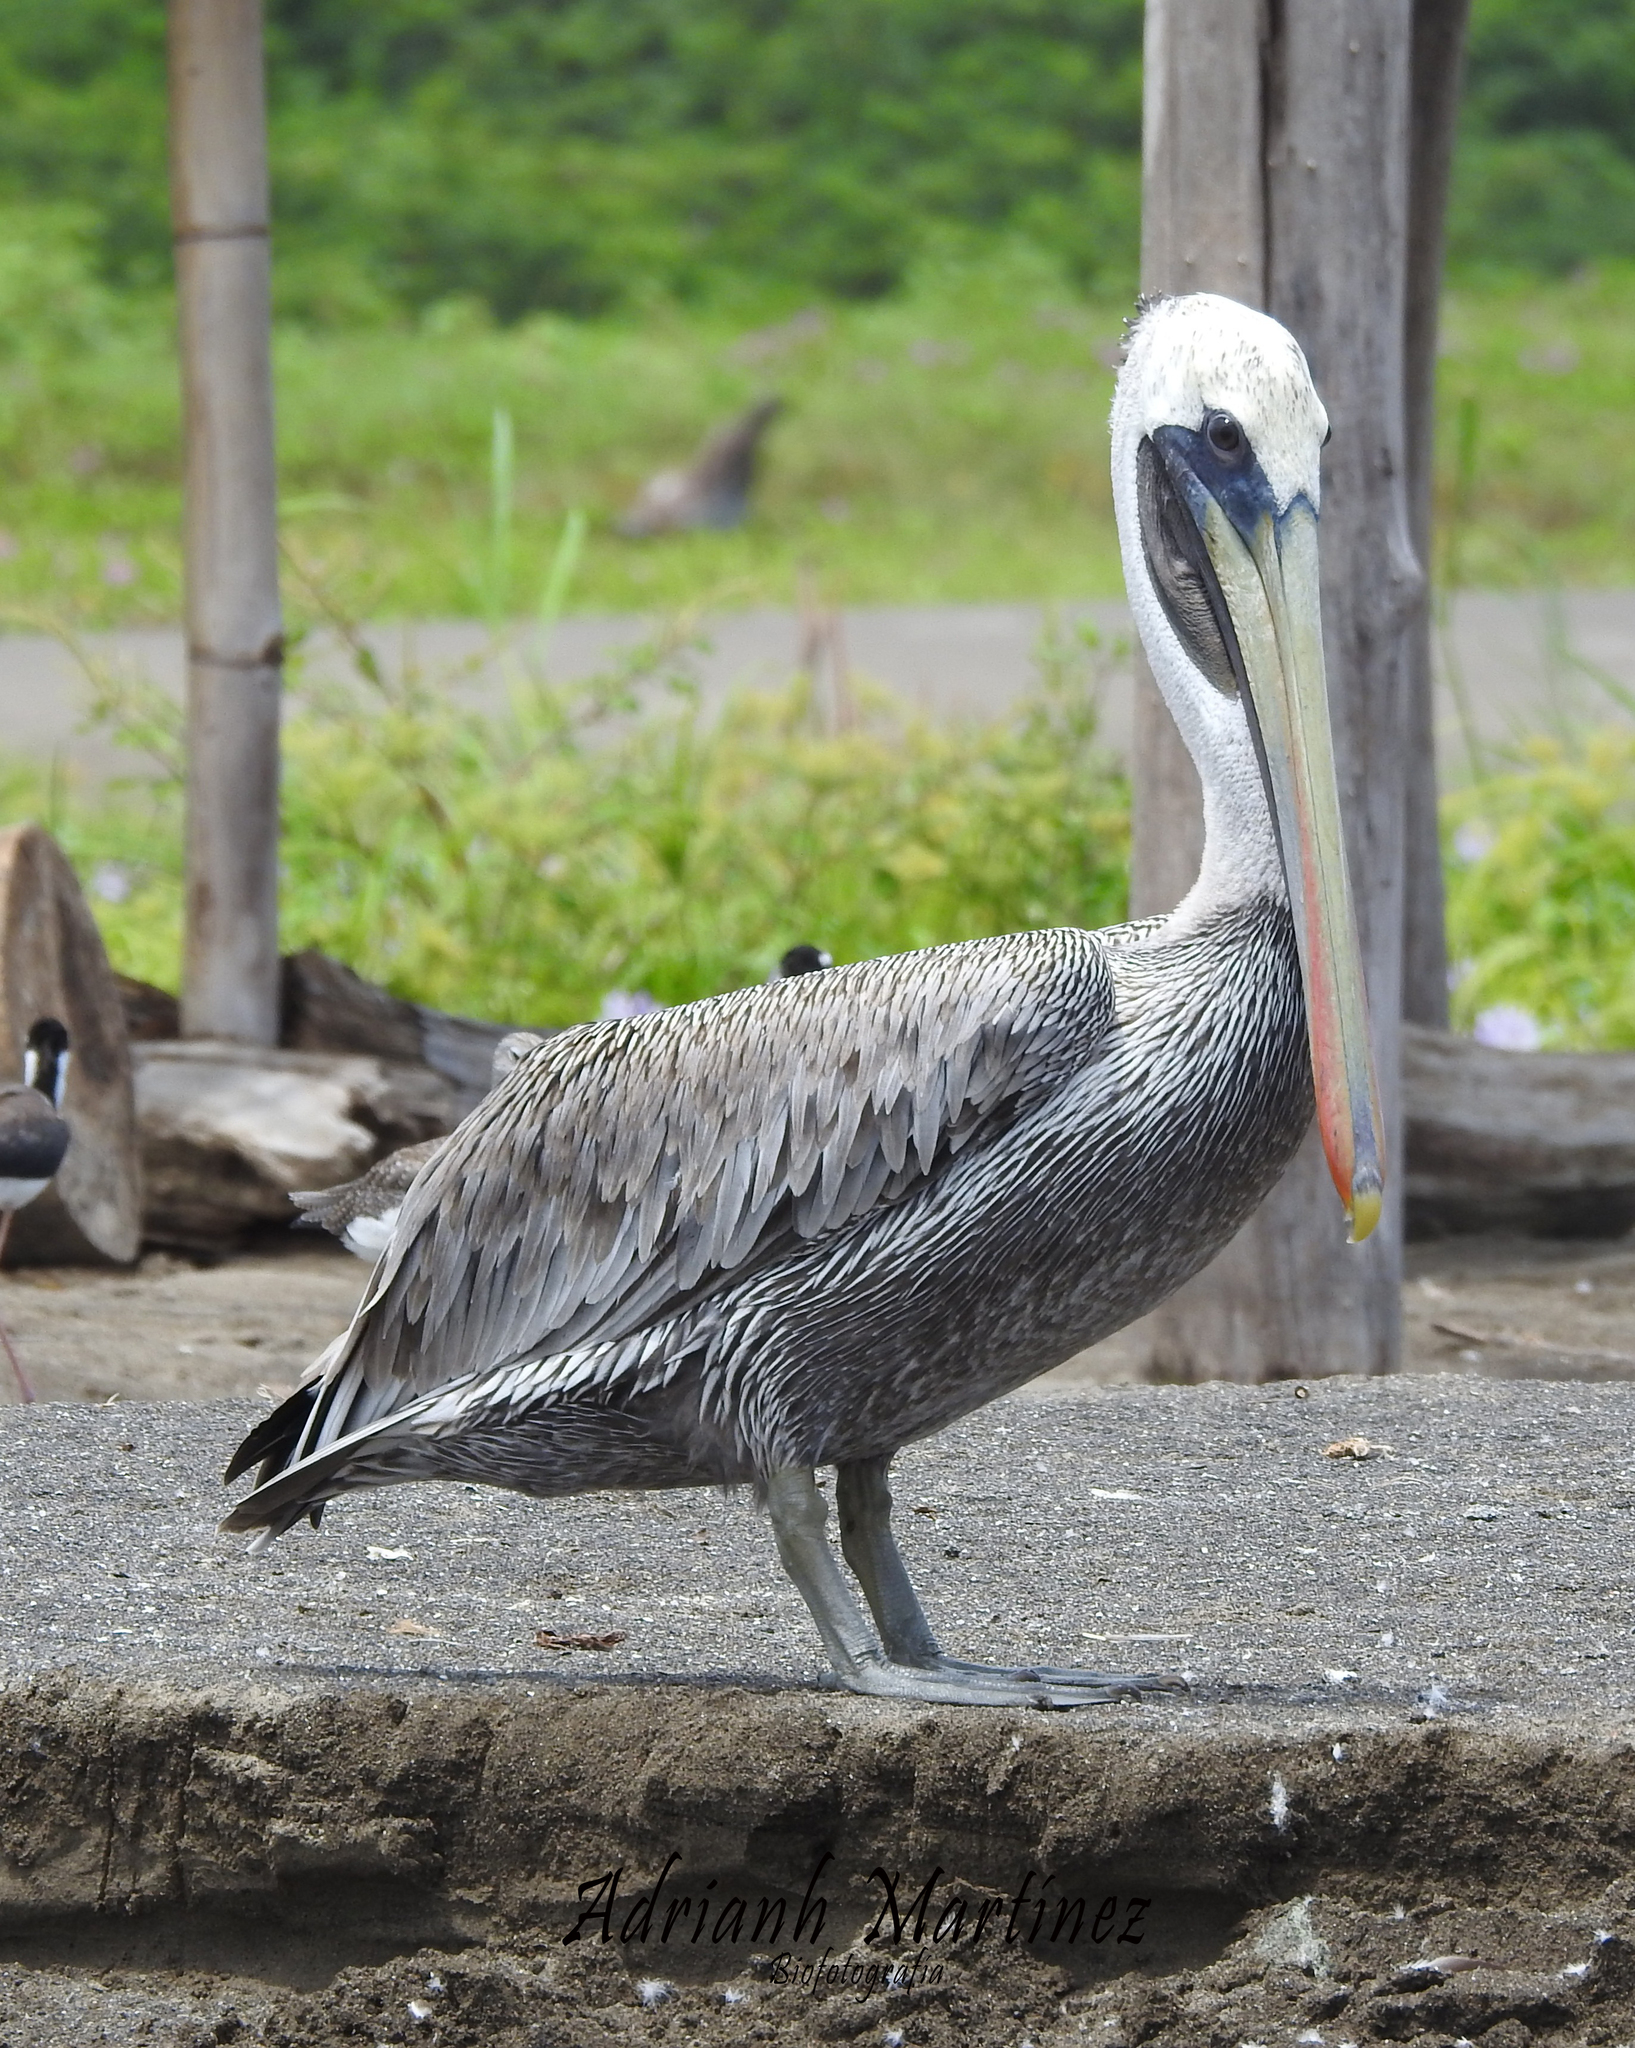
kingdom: Animalia
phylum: Chordata
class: Aves
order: Pelecaniformes
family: Pelecanidae
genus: Pelecanus
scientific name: Pelecanus occidentalis
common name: Brown pelican
